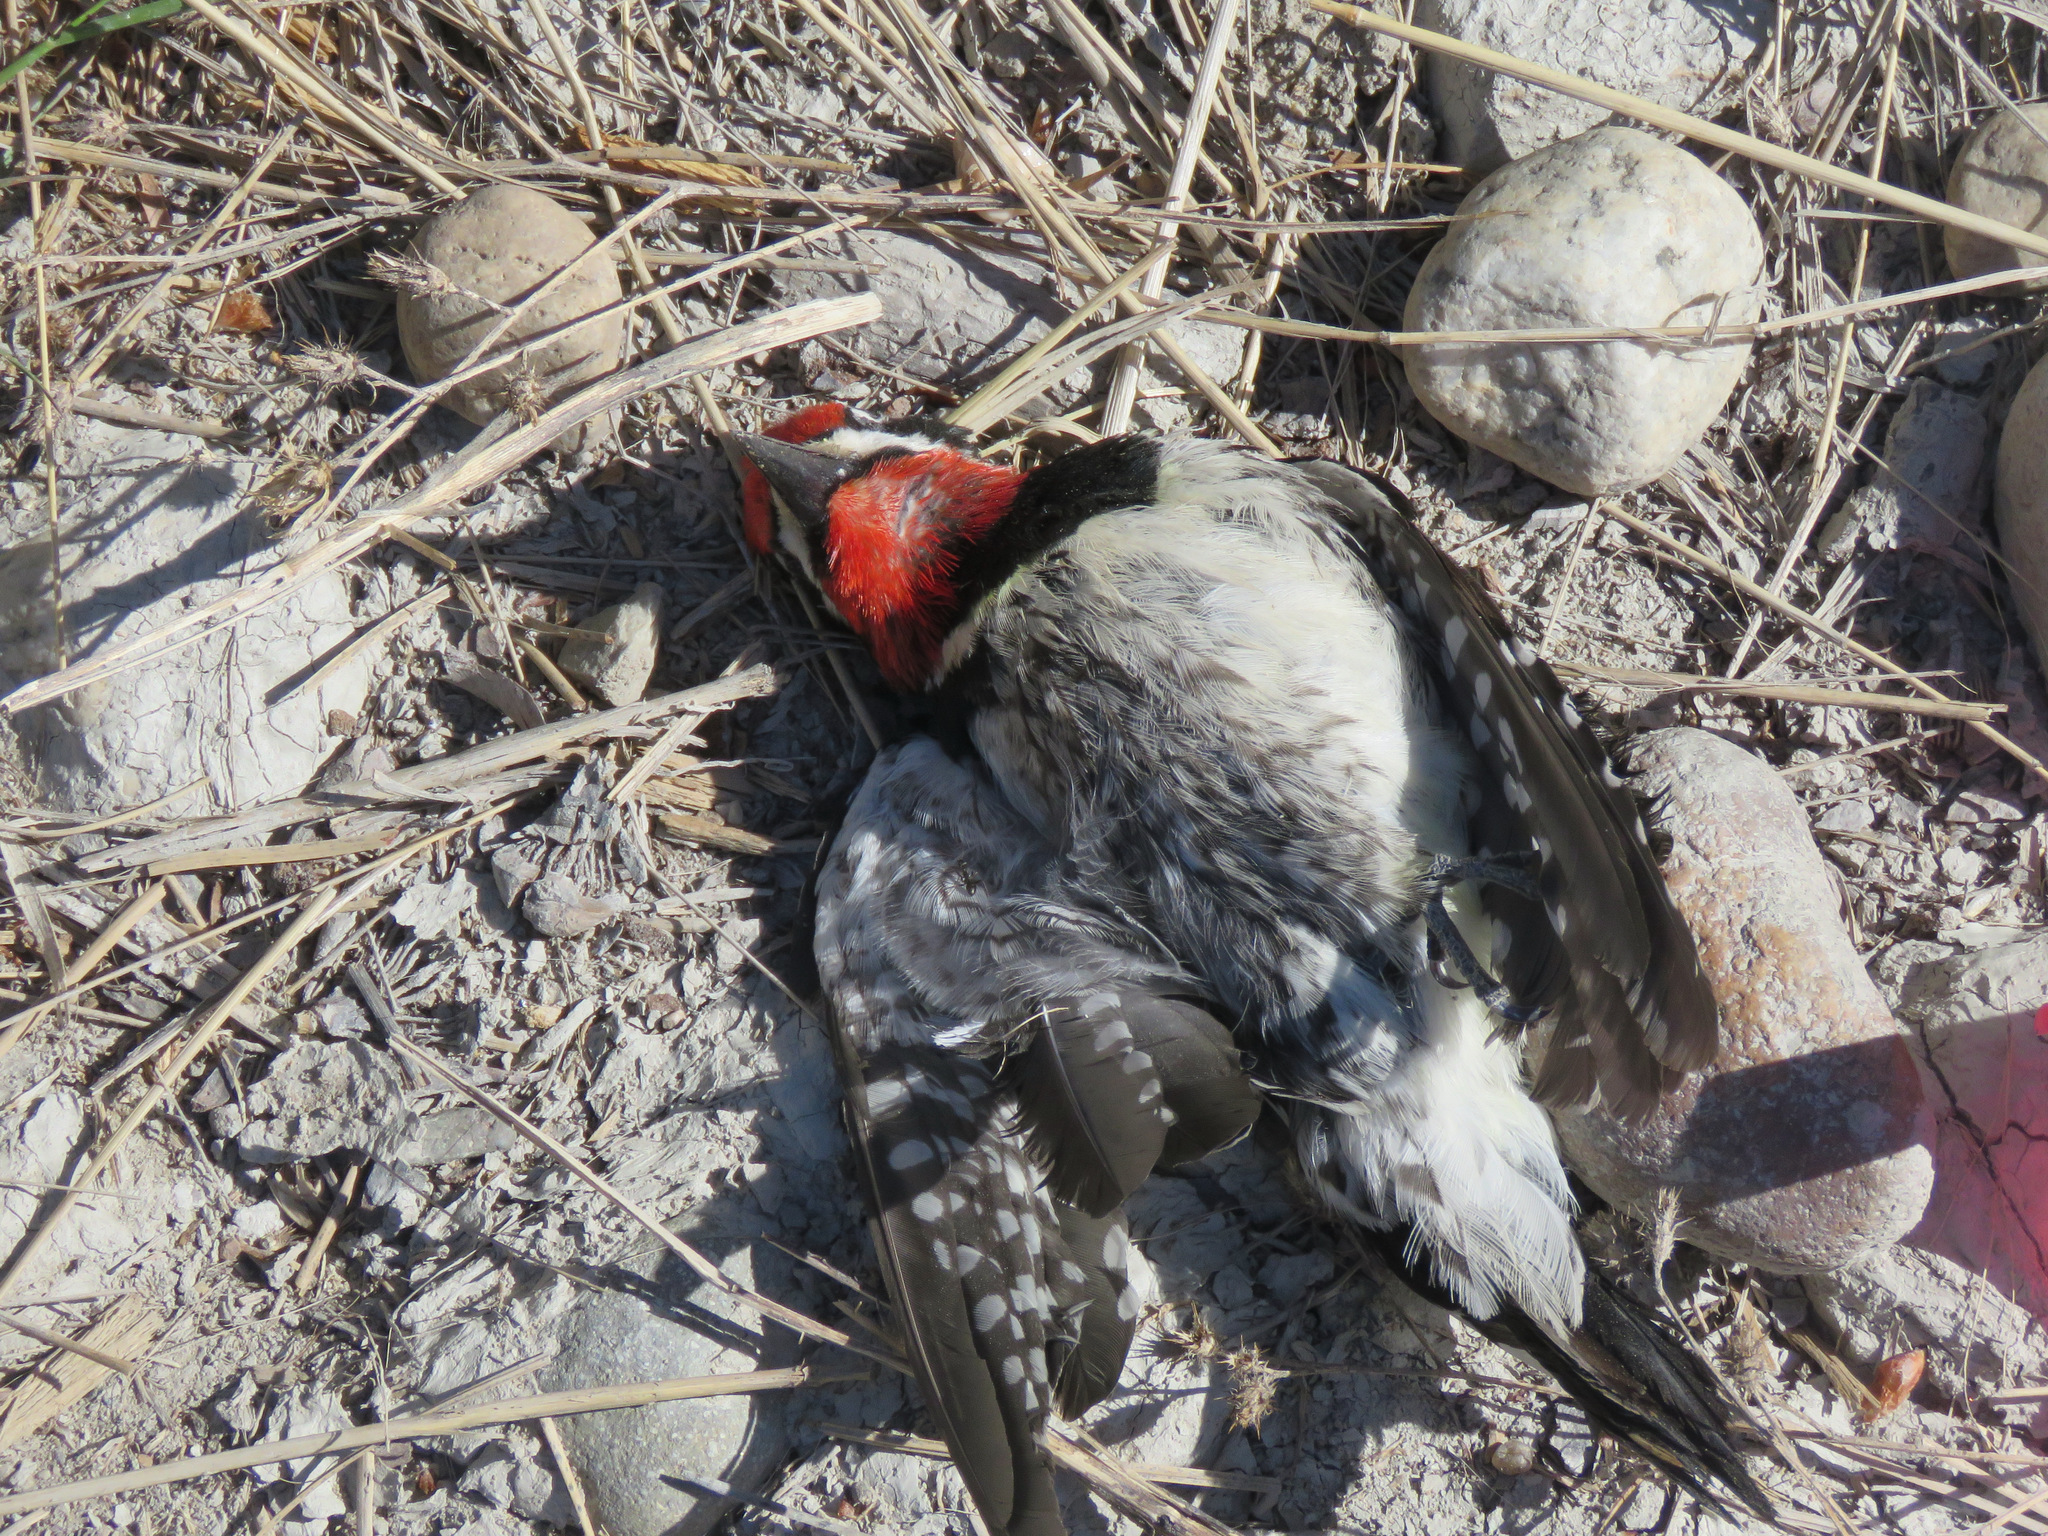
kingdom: Animalia
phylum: Chordata
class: Aves
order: Piciformes
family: Picidae
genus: Sphyrapicus
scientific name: Sphyrapicus nuchalis
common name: Red-naped sapsucker
